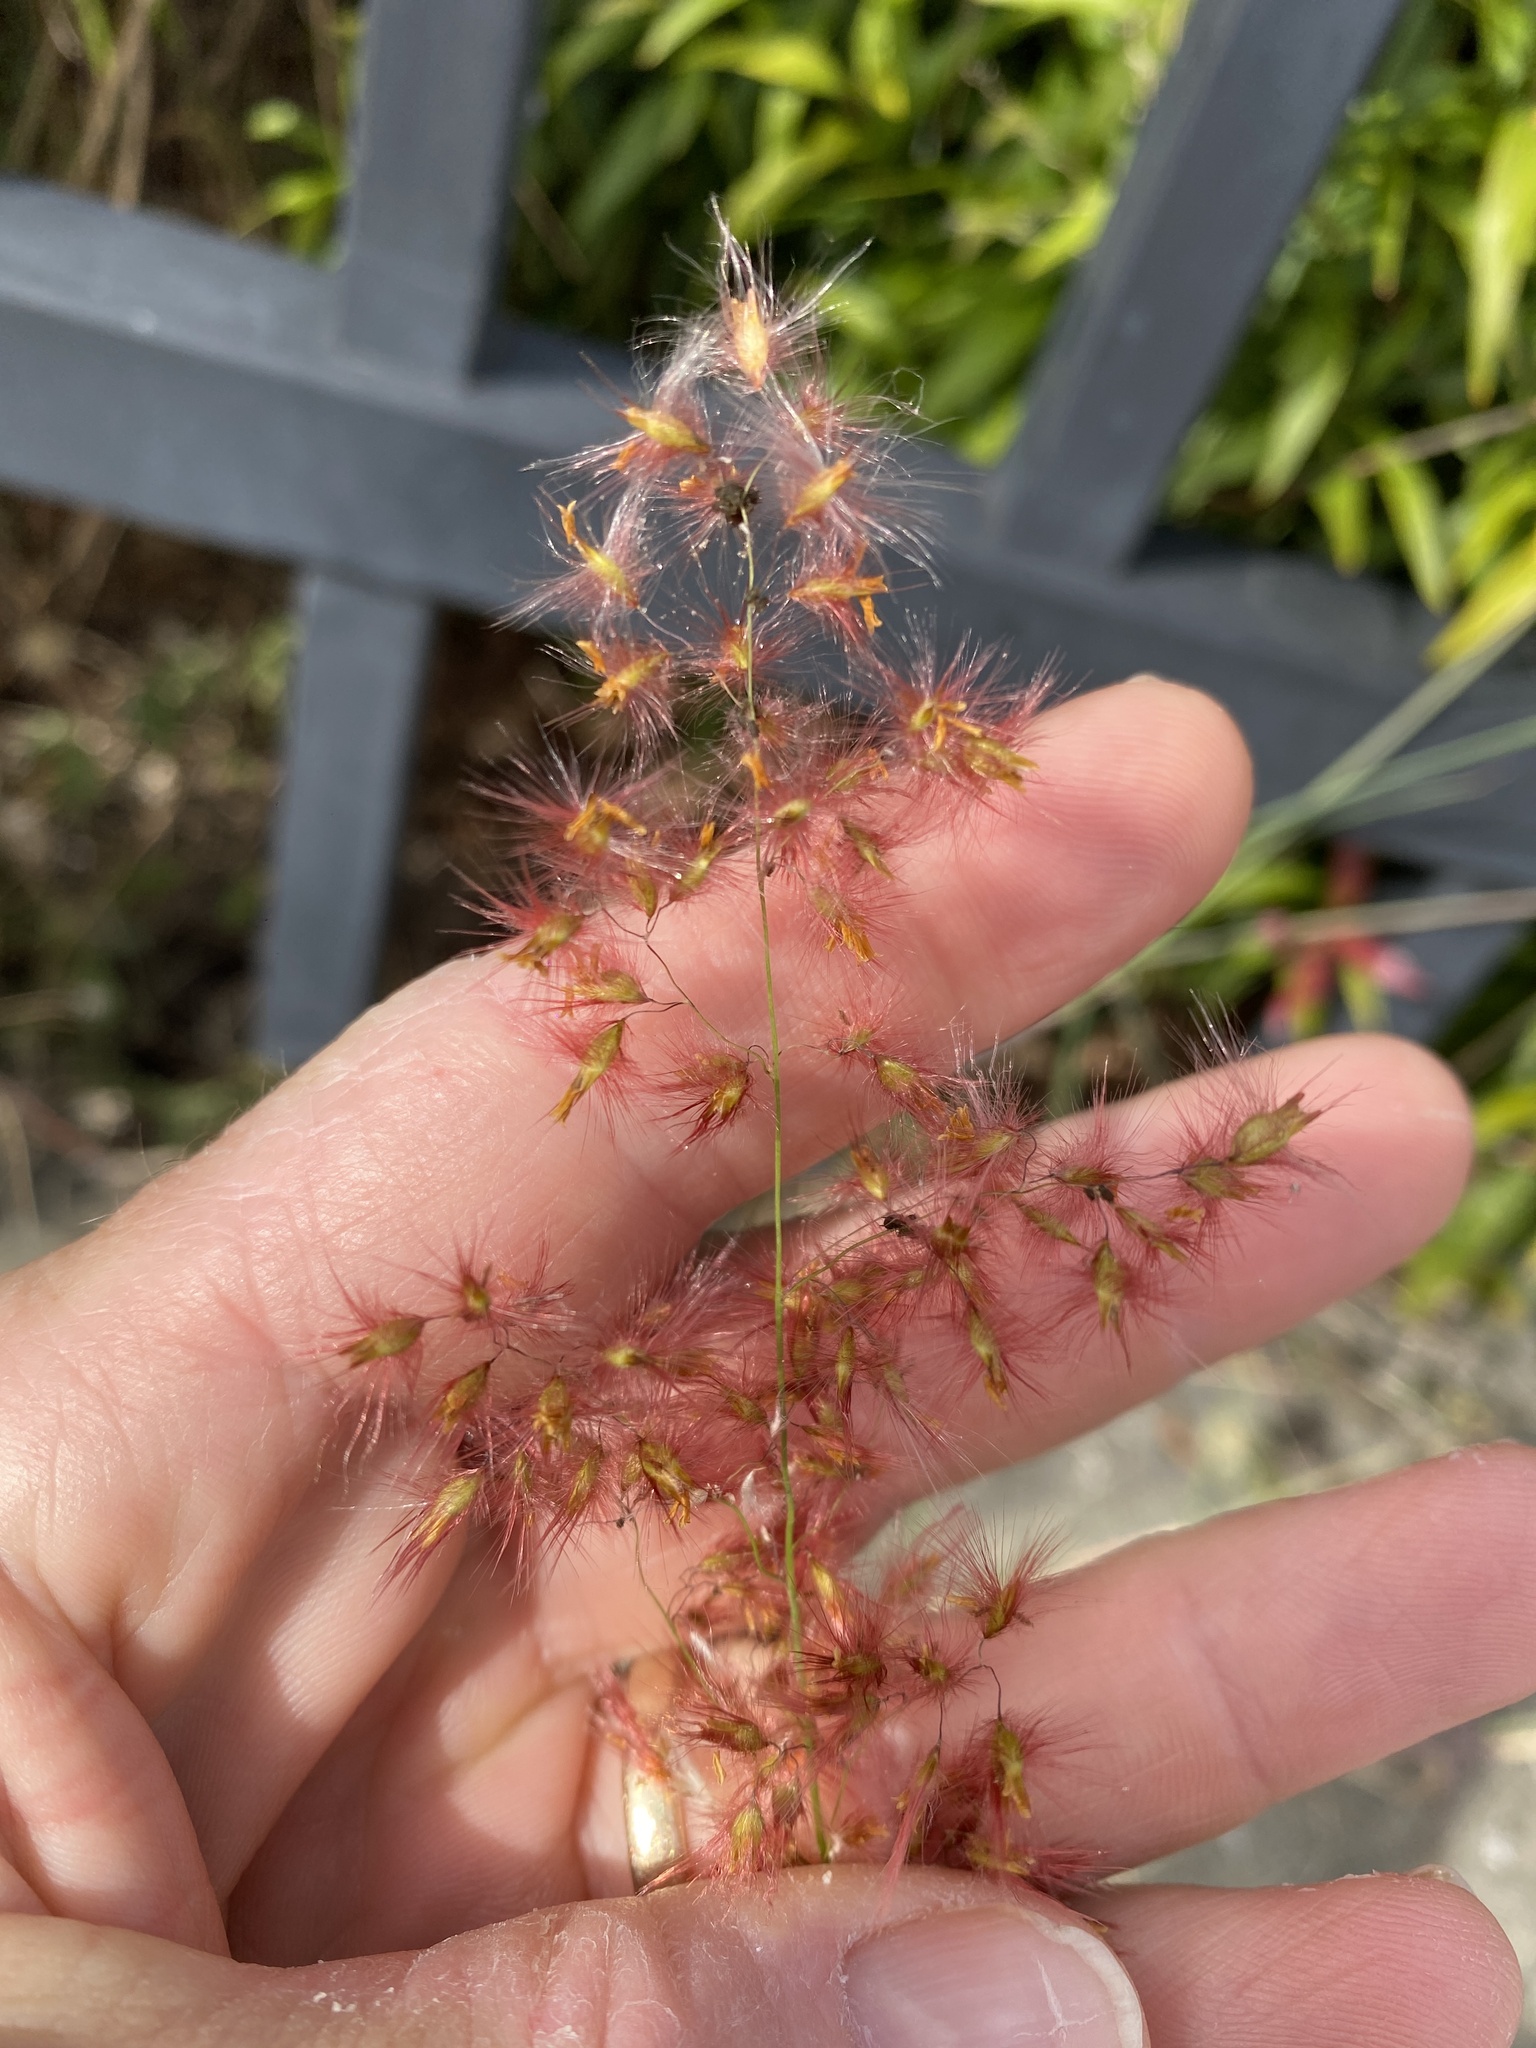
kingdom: Plantae
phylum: Tracheophyta
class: Liliopsida
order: Poales
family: Poaceae
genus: Melinis
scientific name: Melinis repens
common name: Rose natal grass
